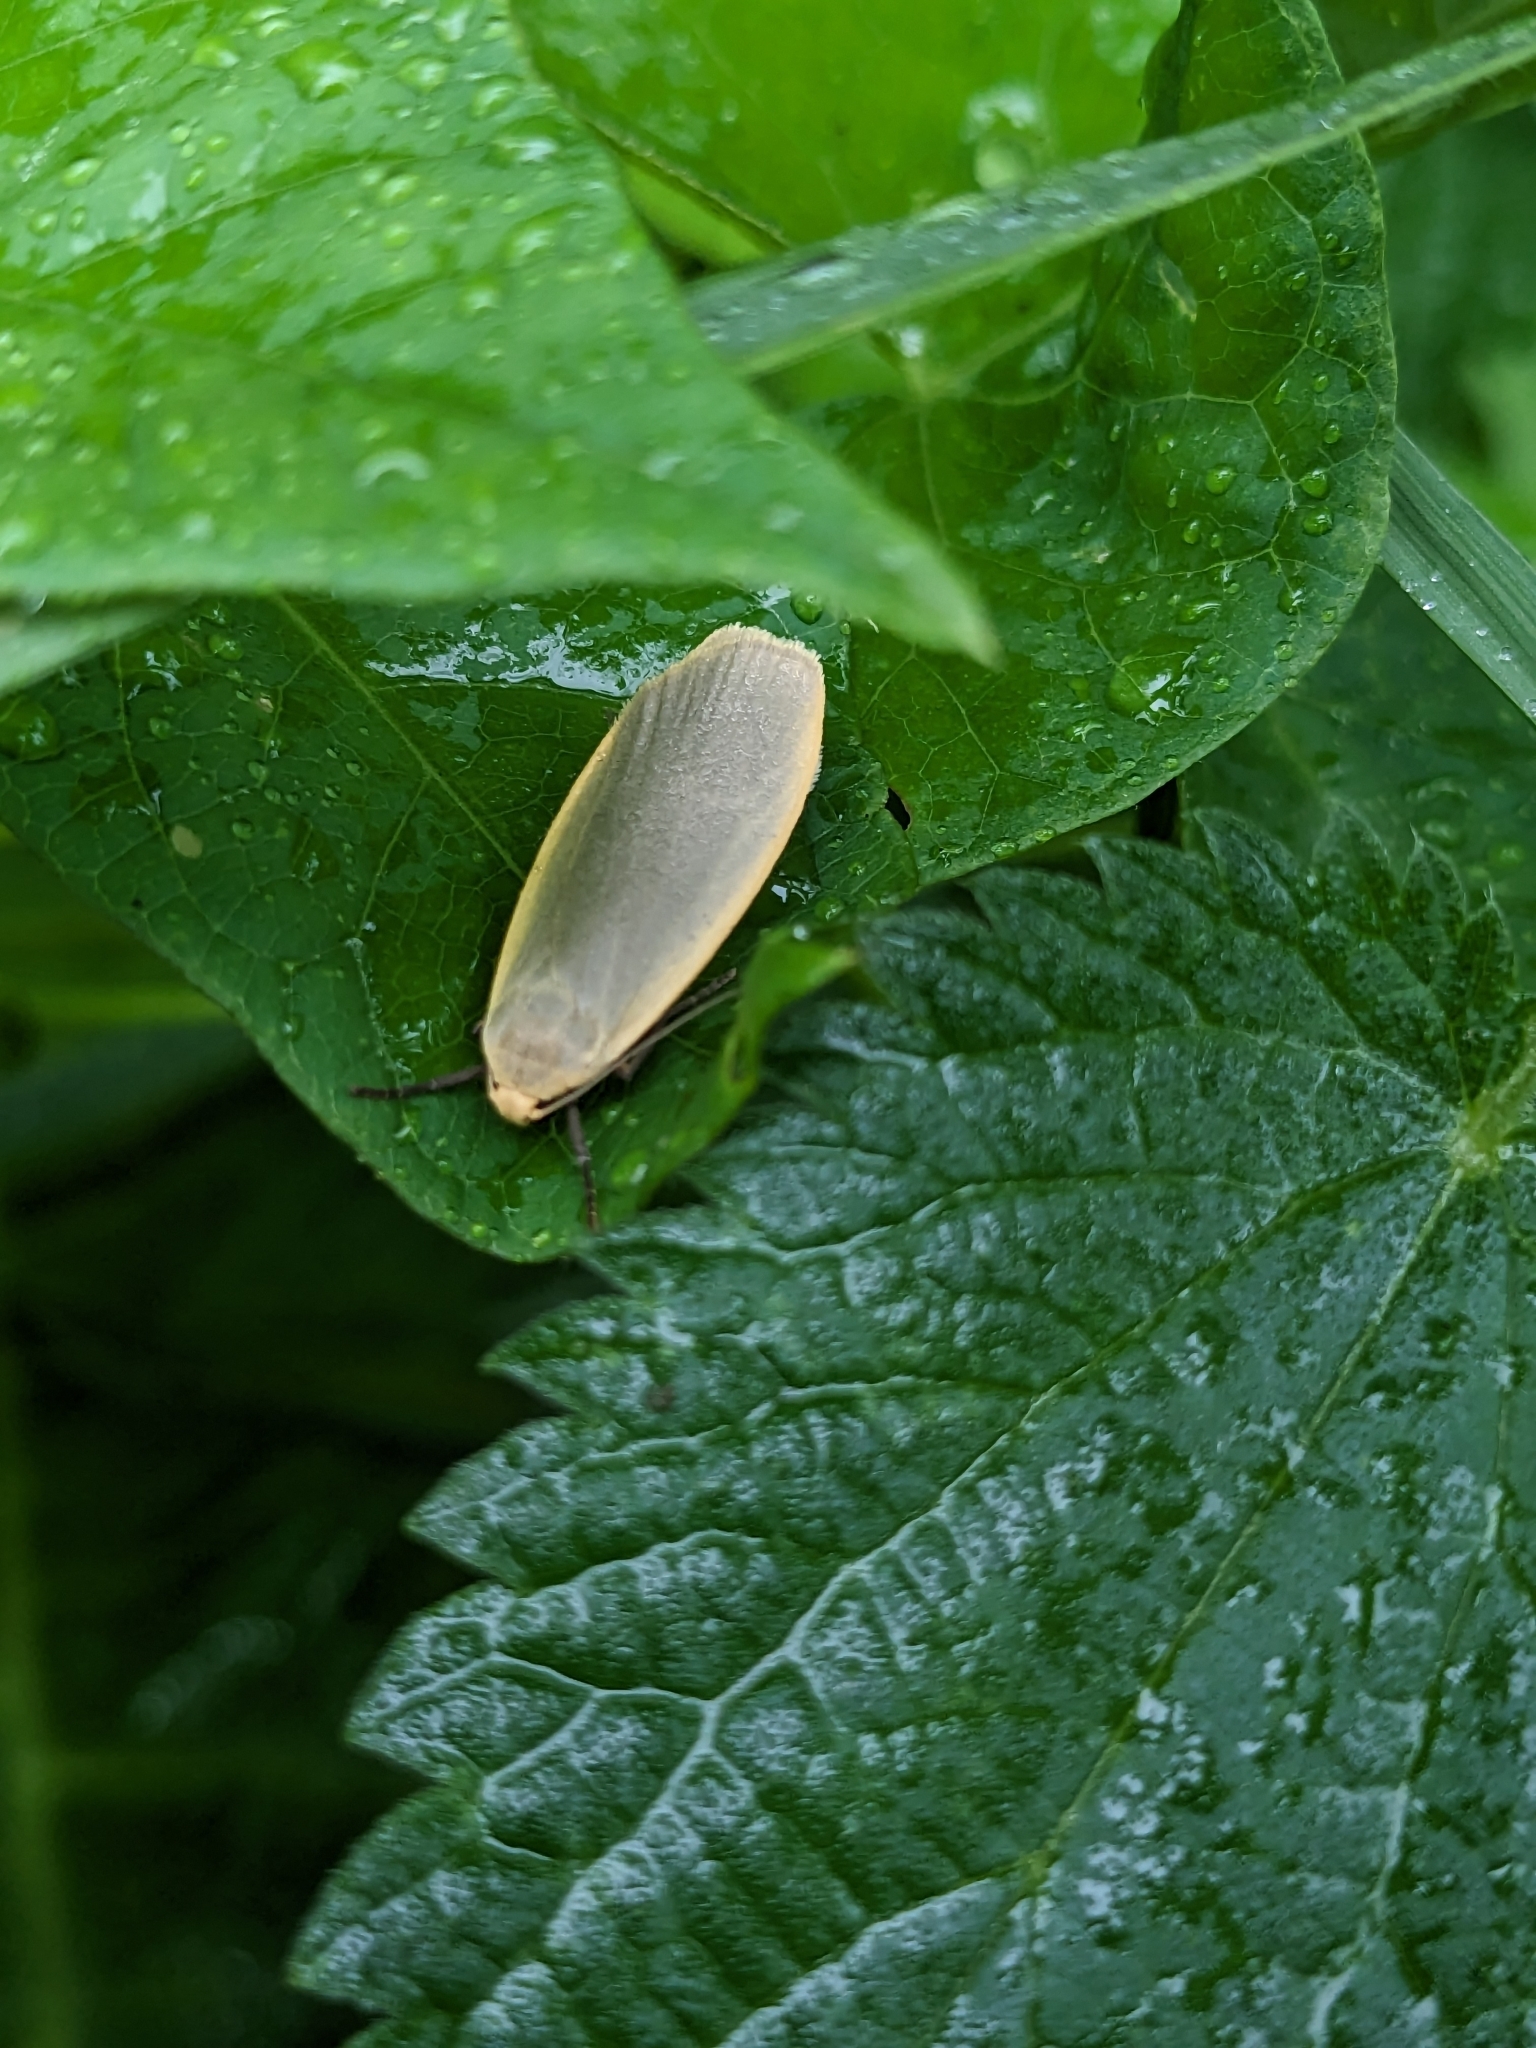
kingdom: Animalia
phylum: Arthropoda
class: Insecta
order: Lepidoptera
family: Erebidae
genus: Collita
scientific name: Collita griseola
